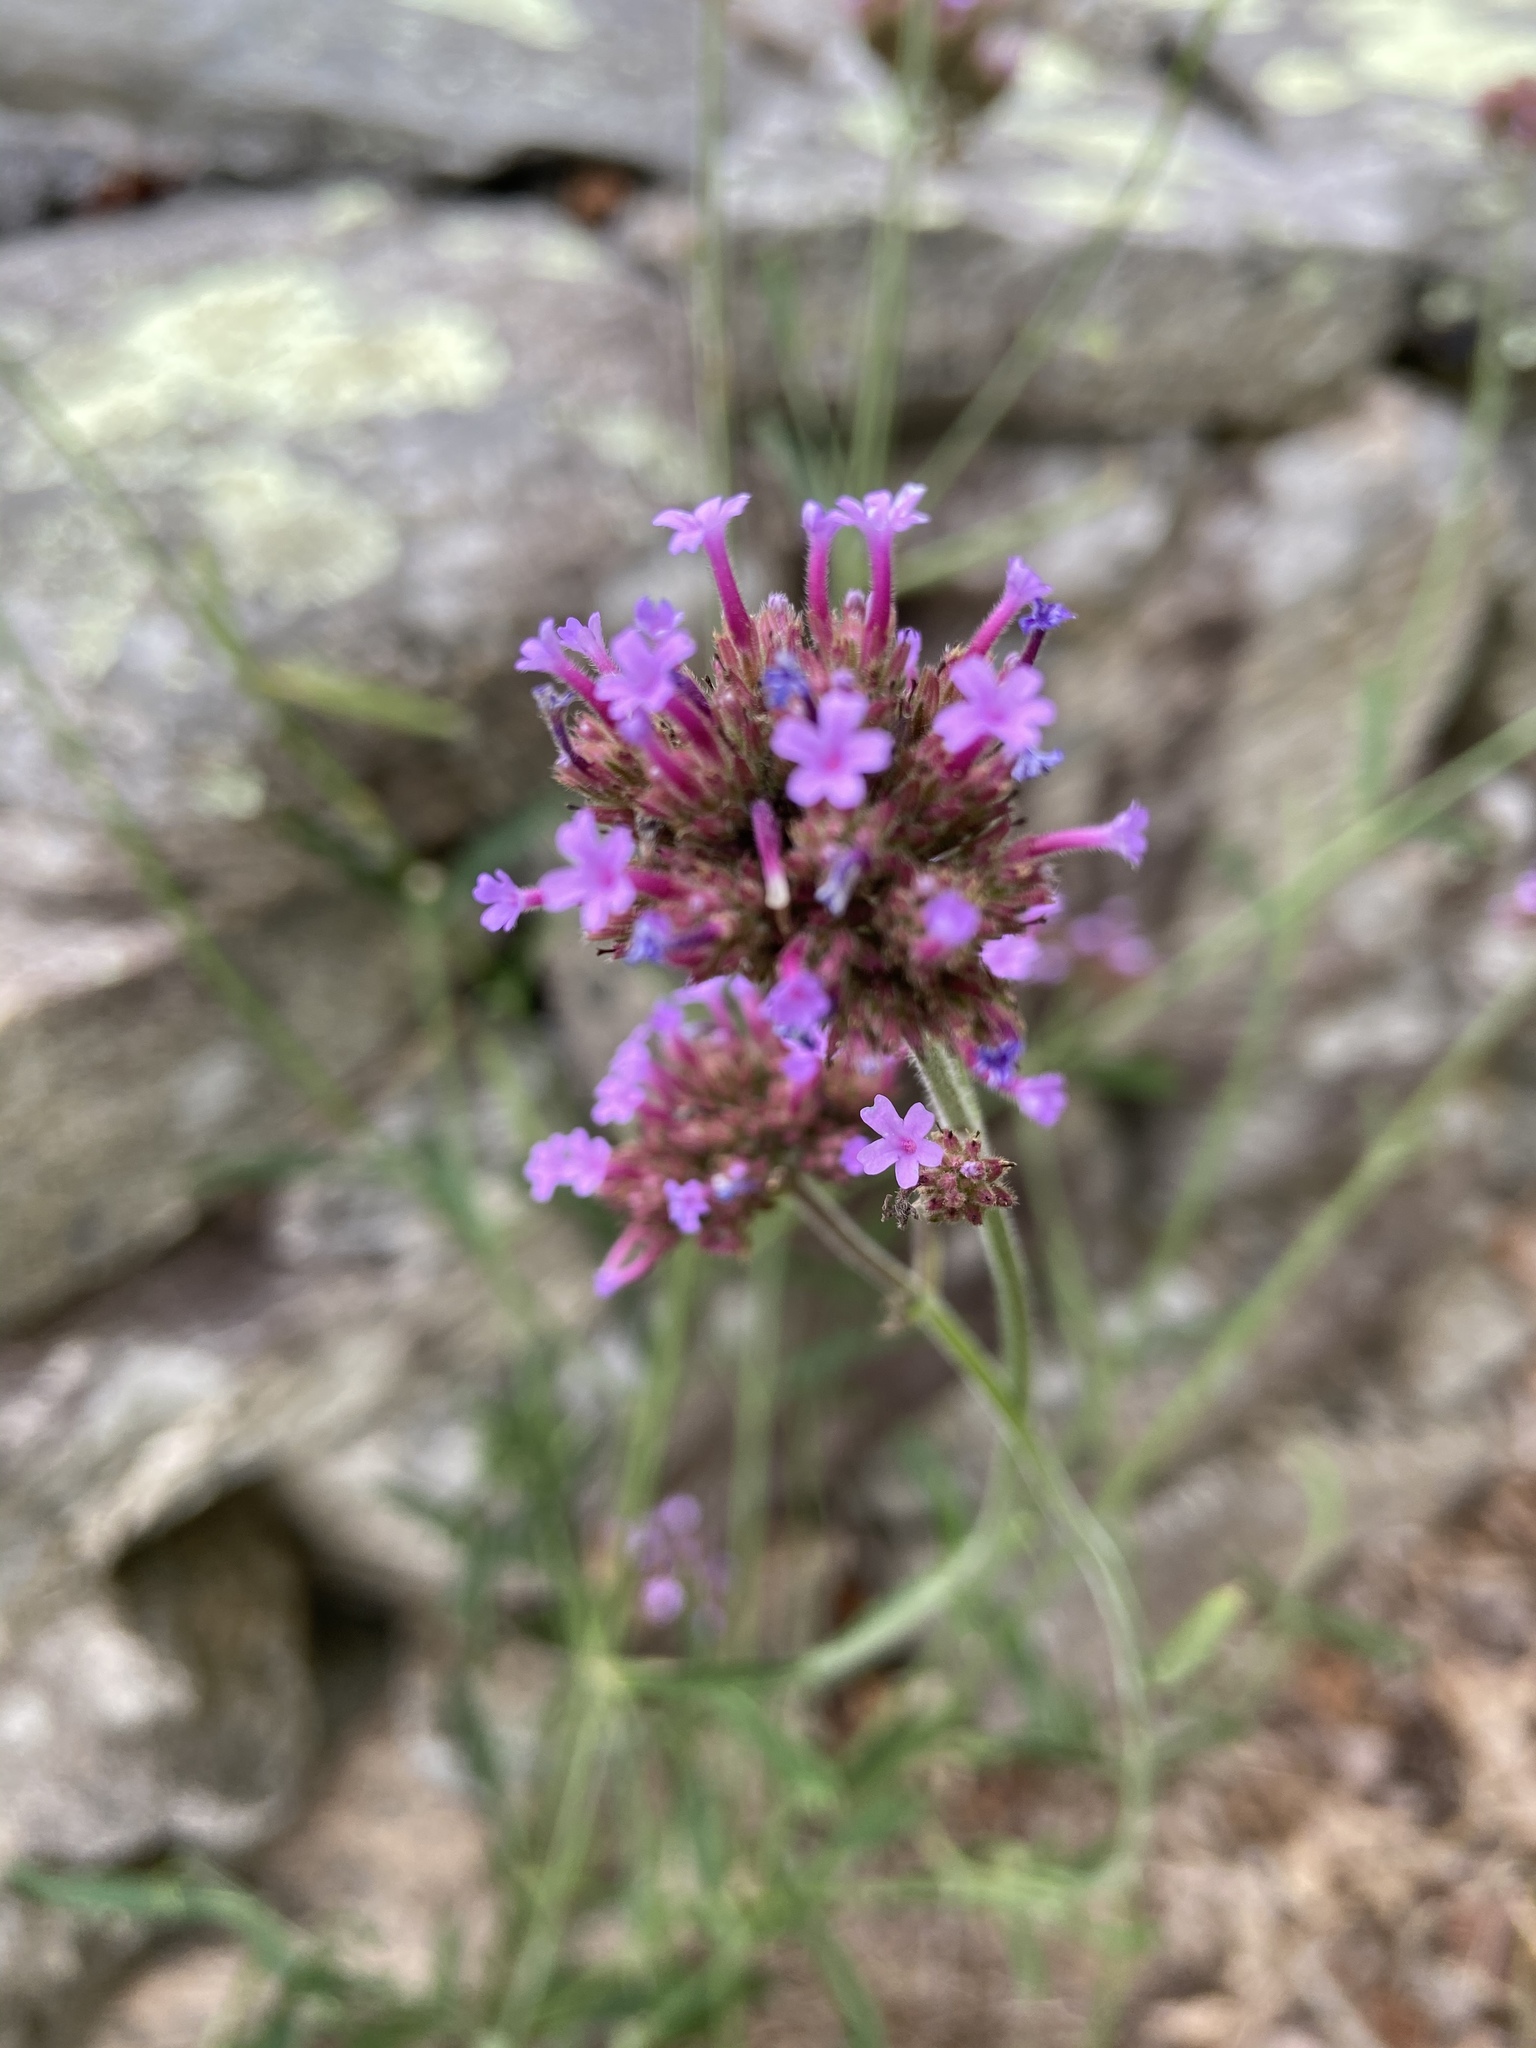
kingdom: Plantae
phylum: Tracheophyta
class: Magnoliopsida
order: Lamiales
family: Verbenaceae
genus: Verbena
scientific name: Verbena bonariensis
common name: Purpletop vervain
